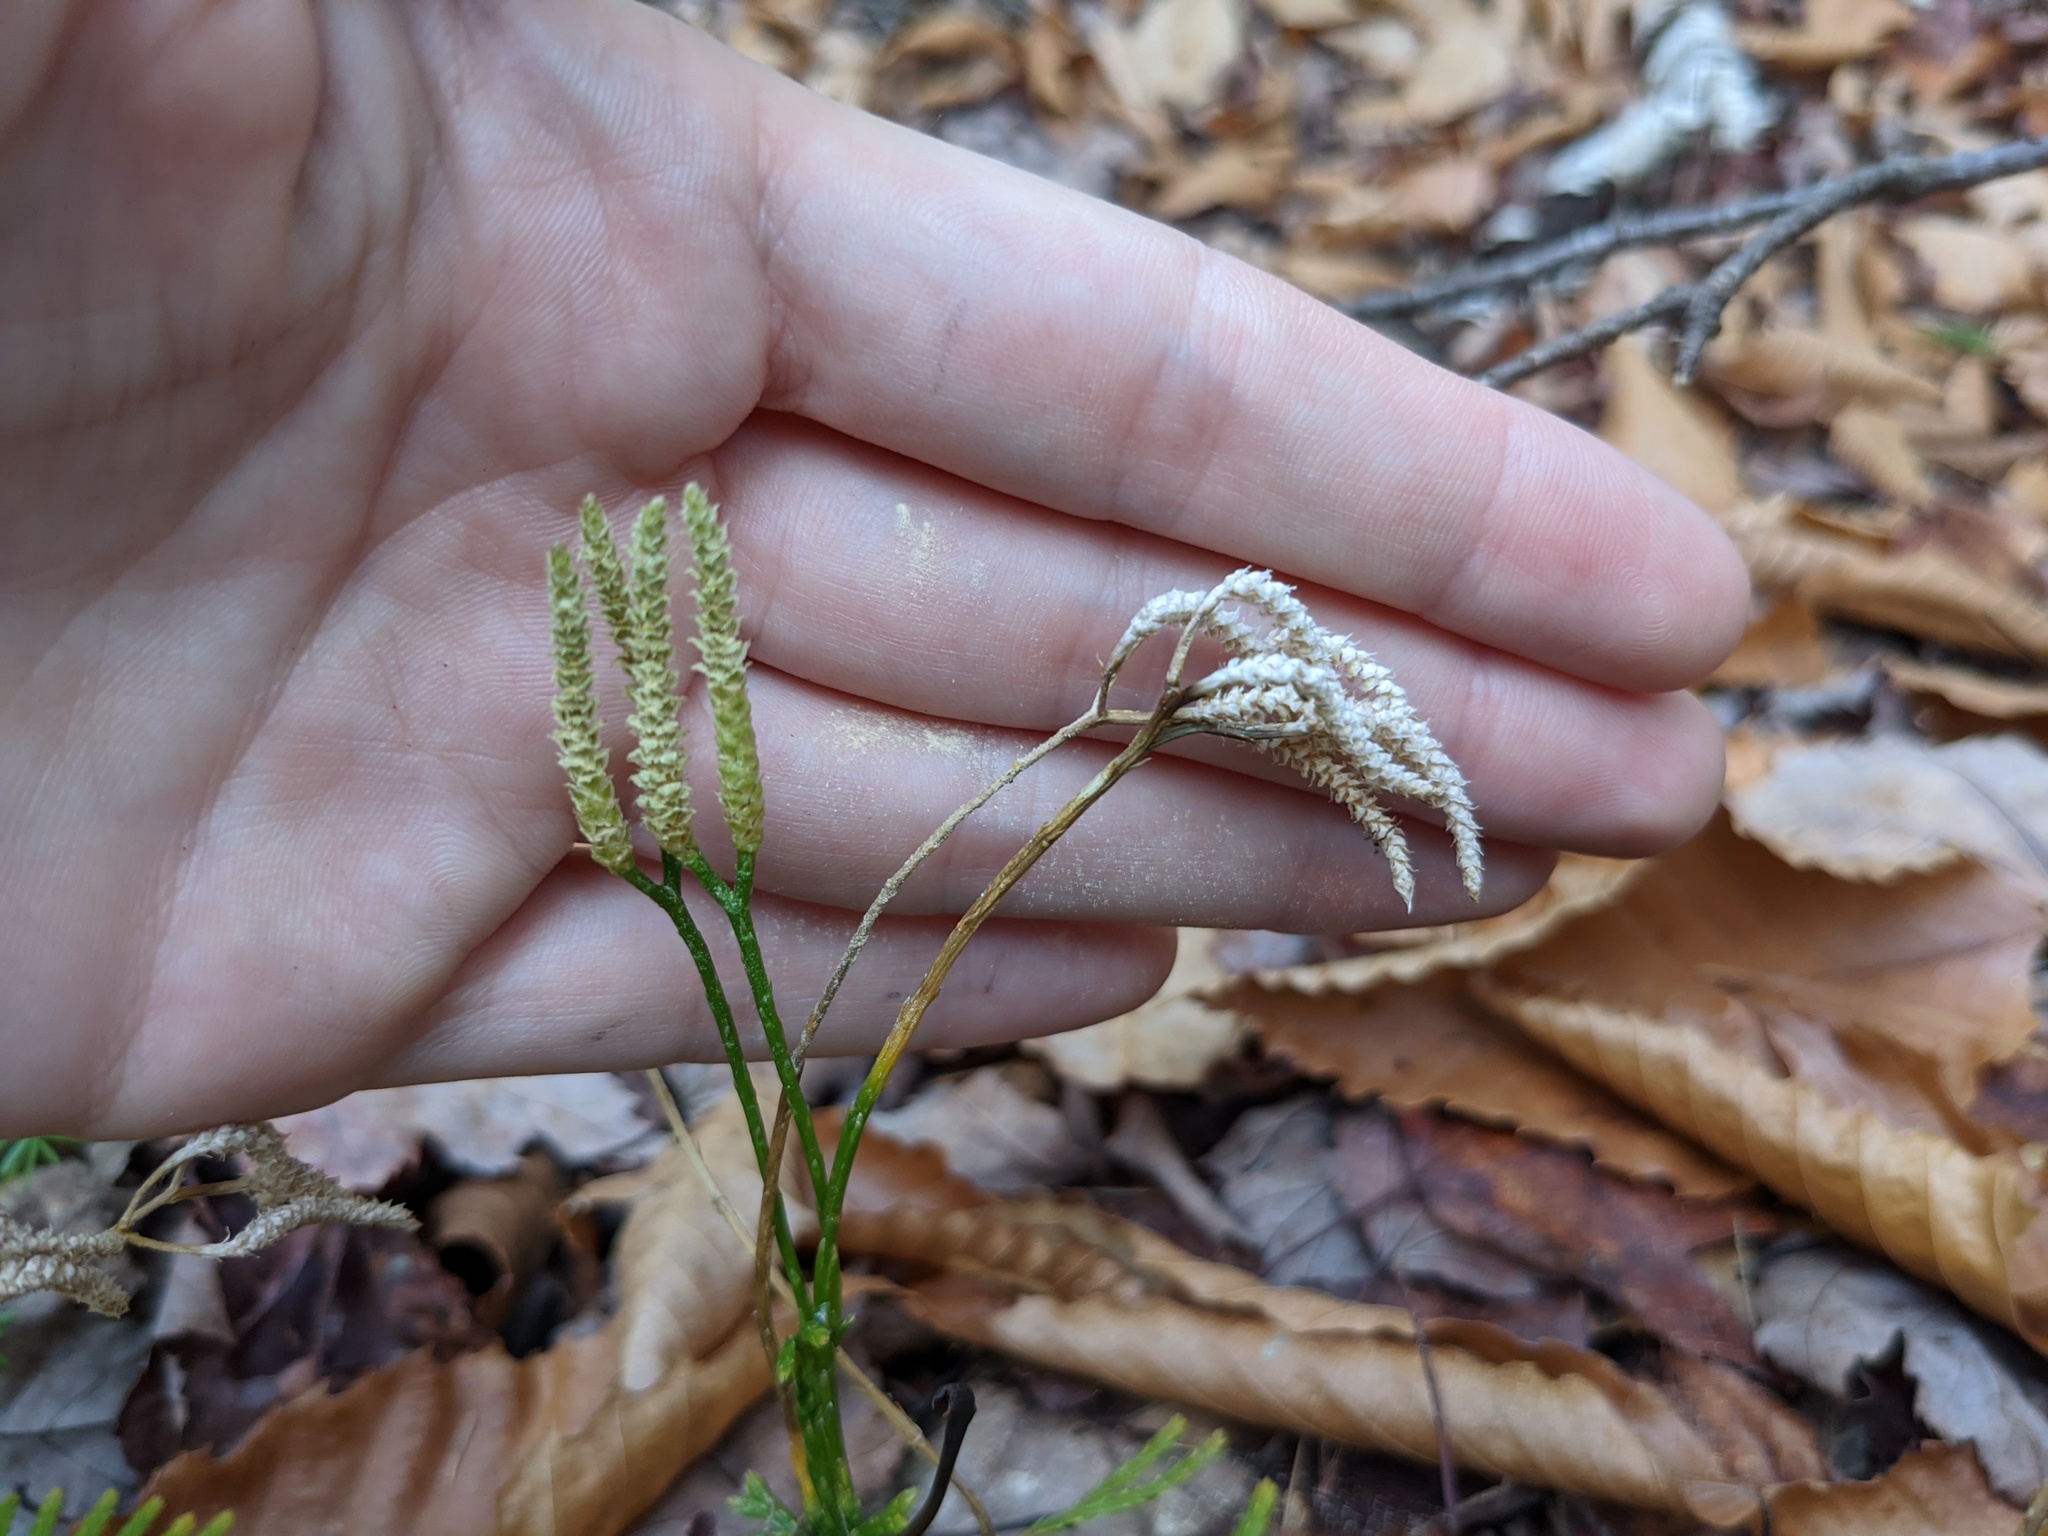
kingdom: Plantae
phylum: Tracheophyta
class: Lycopodiopsida
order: Lycopodiales
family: Lycopodiaceae
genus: Diphasiastrum
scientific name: Diphasiastrum digitatum
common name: Southern running-pine
